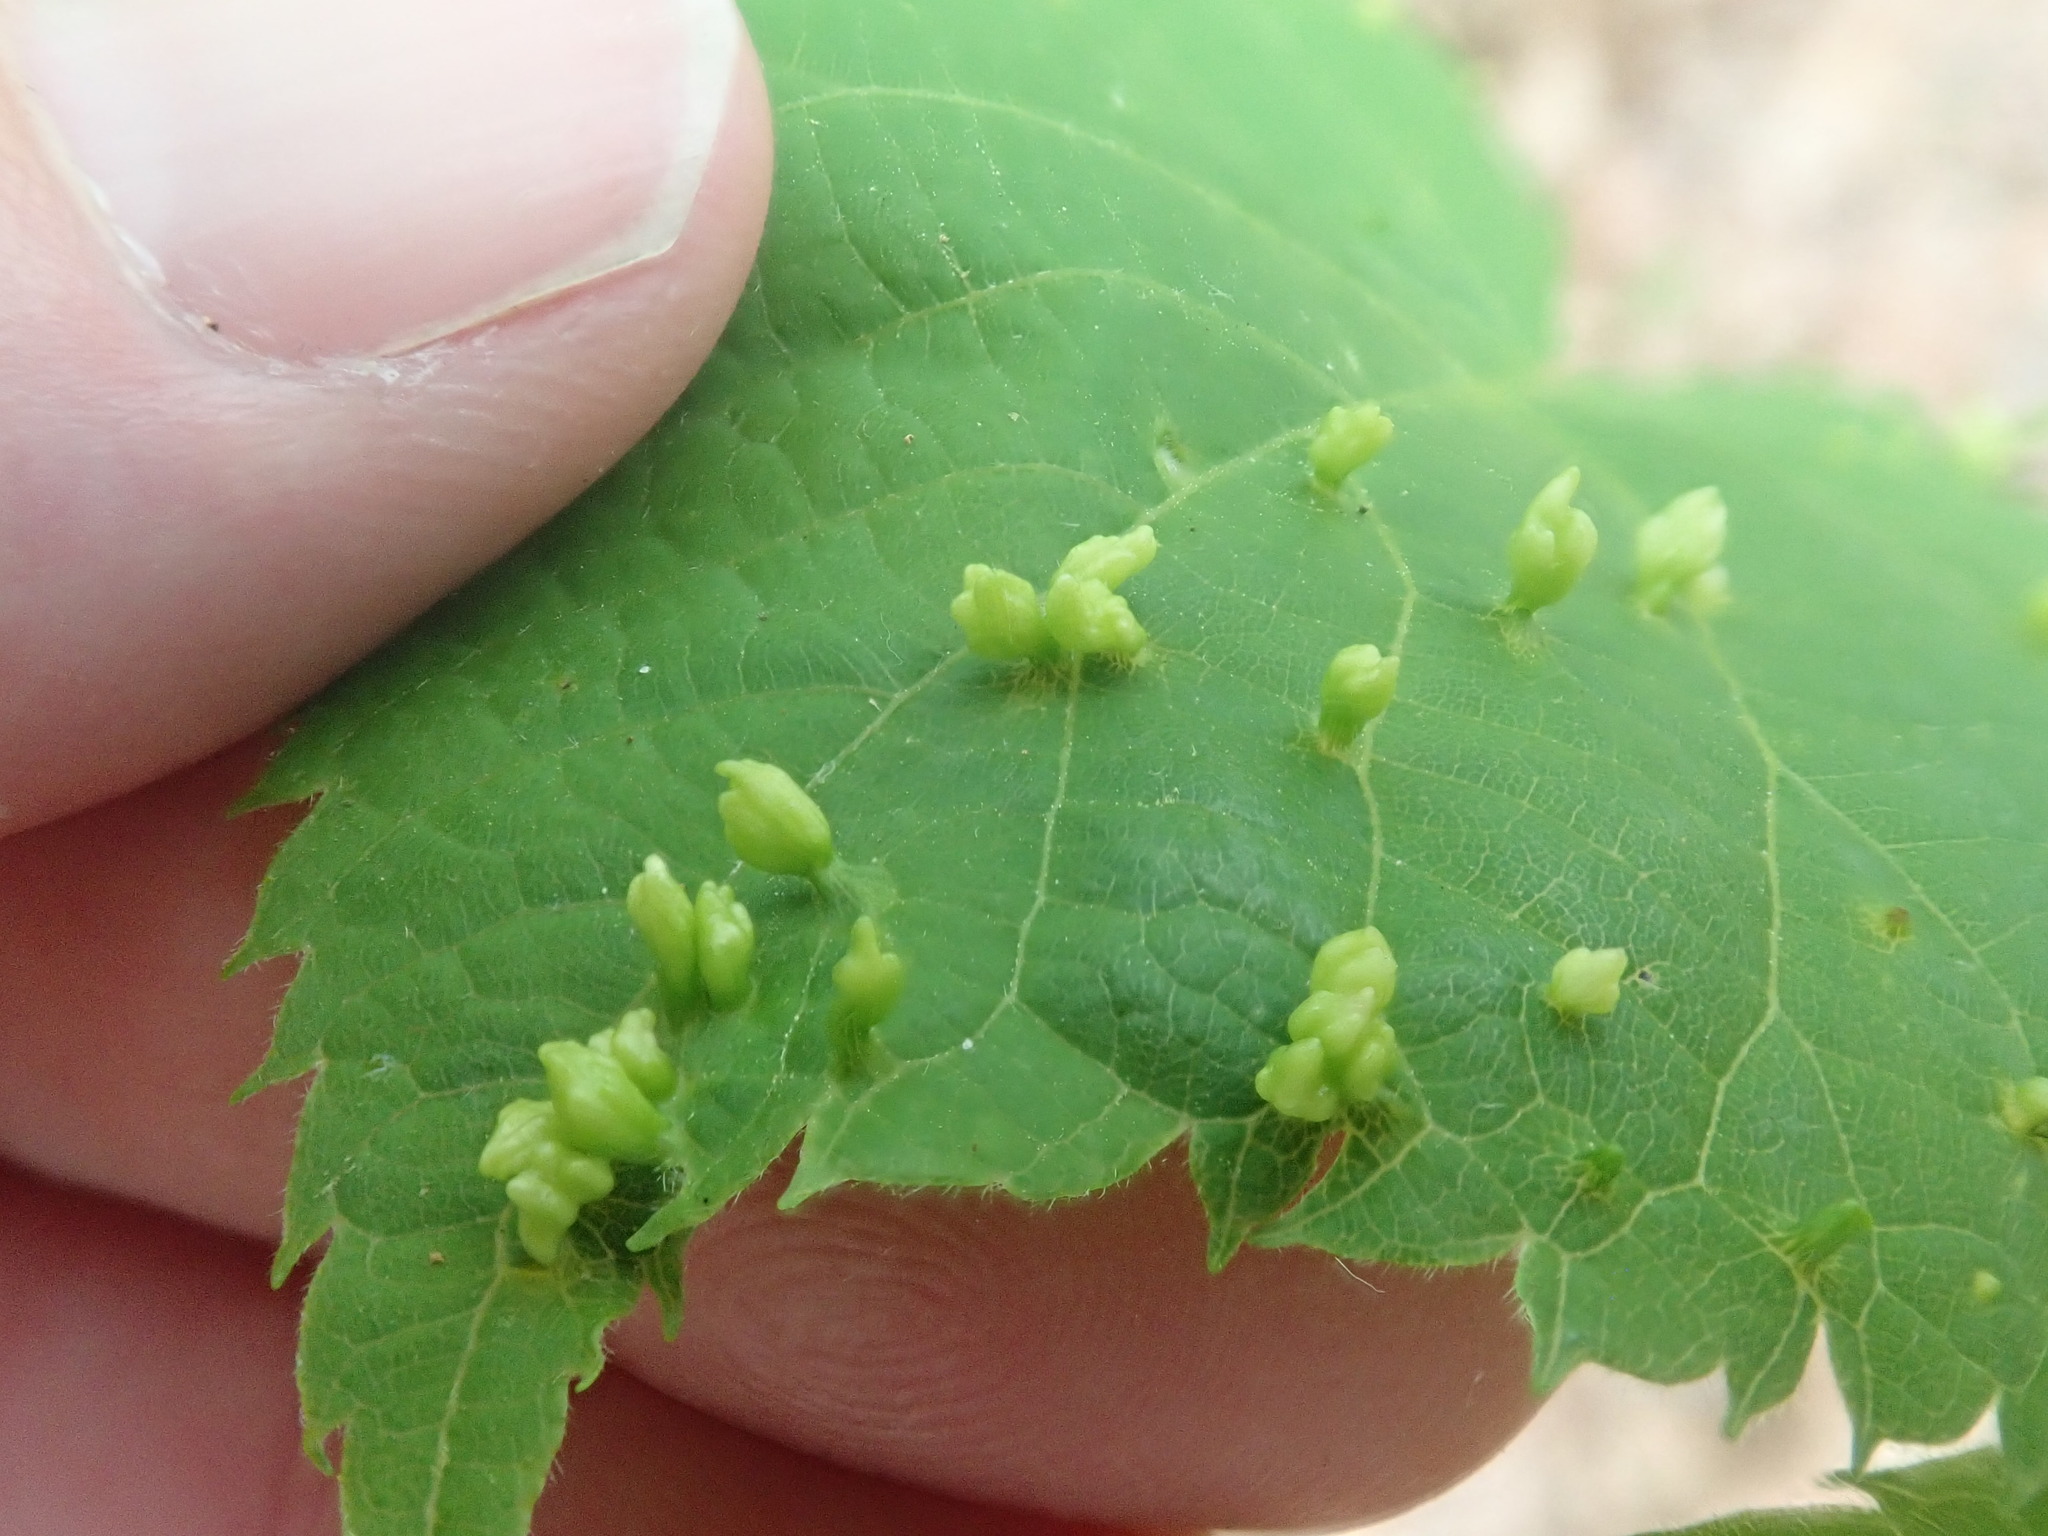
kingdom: Animalia
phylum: Arthropoda
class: Arachnida
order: Trombidiformes
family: Eriophyidae
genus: Eriophyes
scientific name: Eriophyes tiliae
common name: Red nail gall mite
